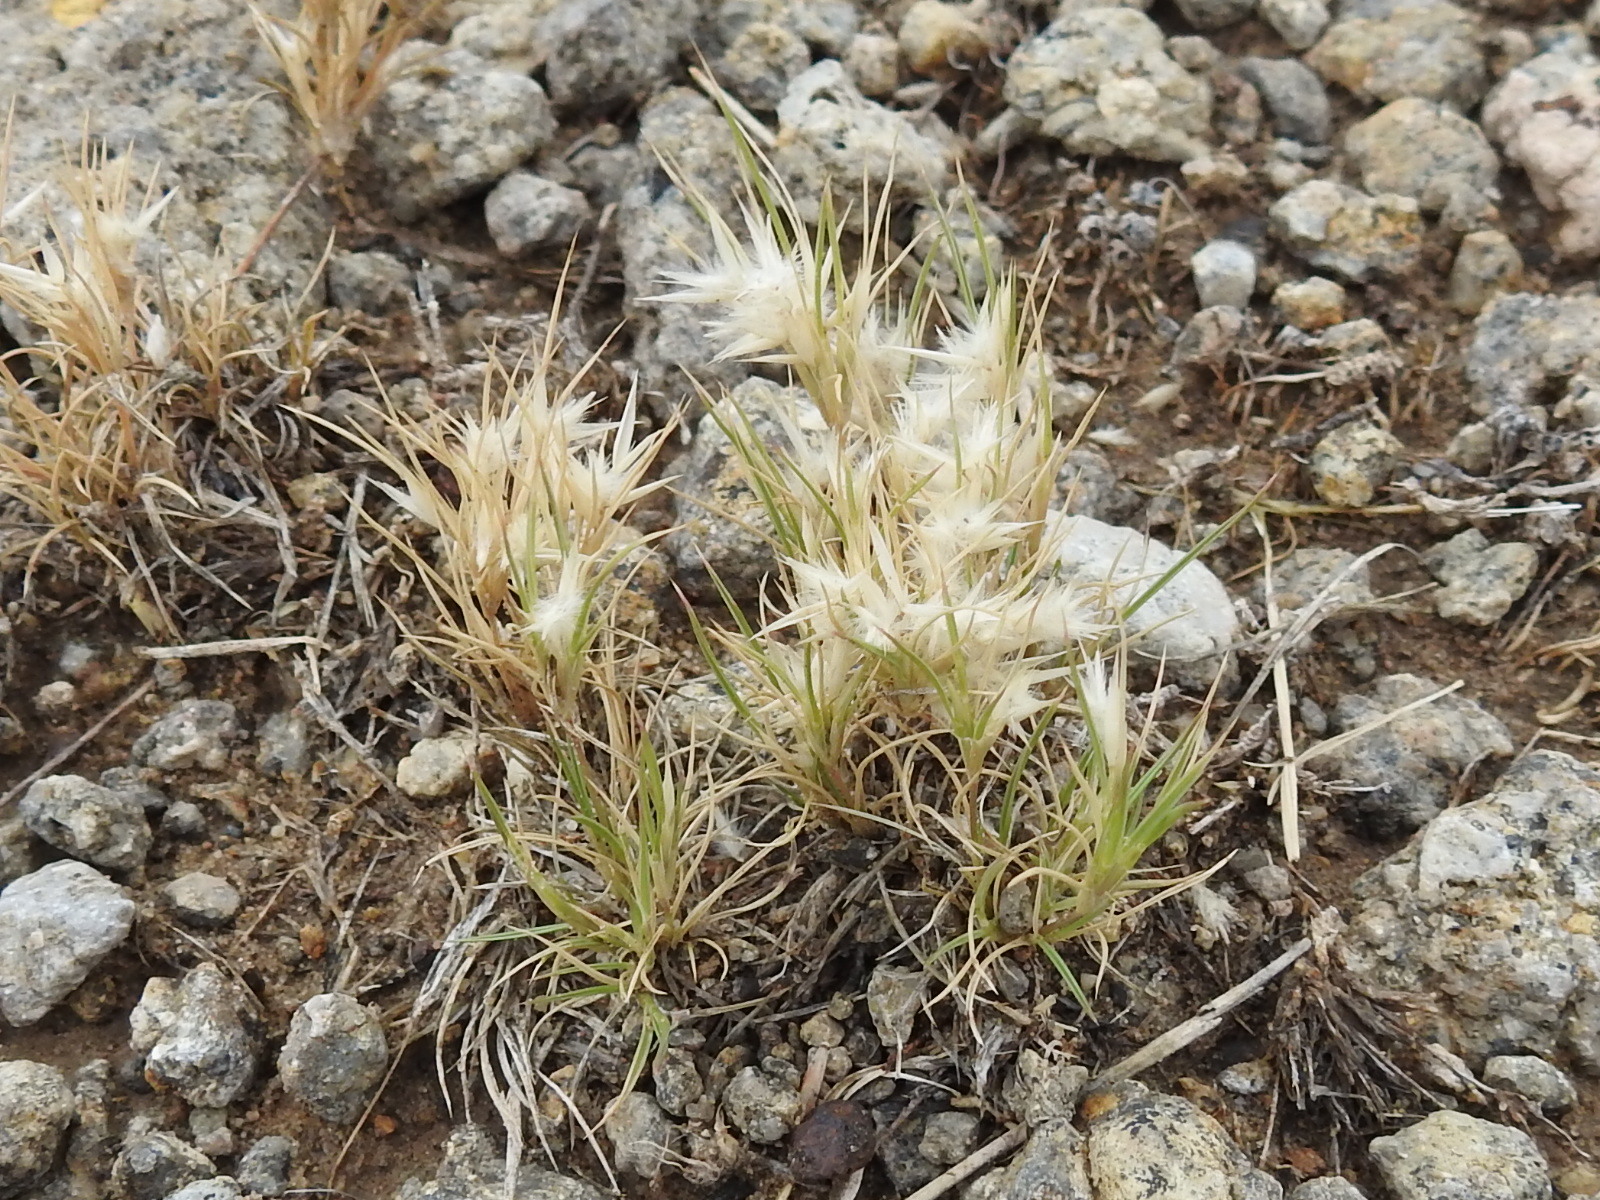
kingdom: Plantae
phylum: Tracheophyta
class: Liliopsida
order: Poales
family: Poaceae
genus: Dasyochloa
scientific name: Dasyochloa pulchella
